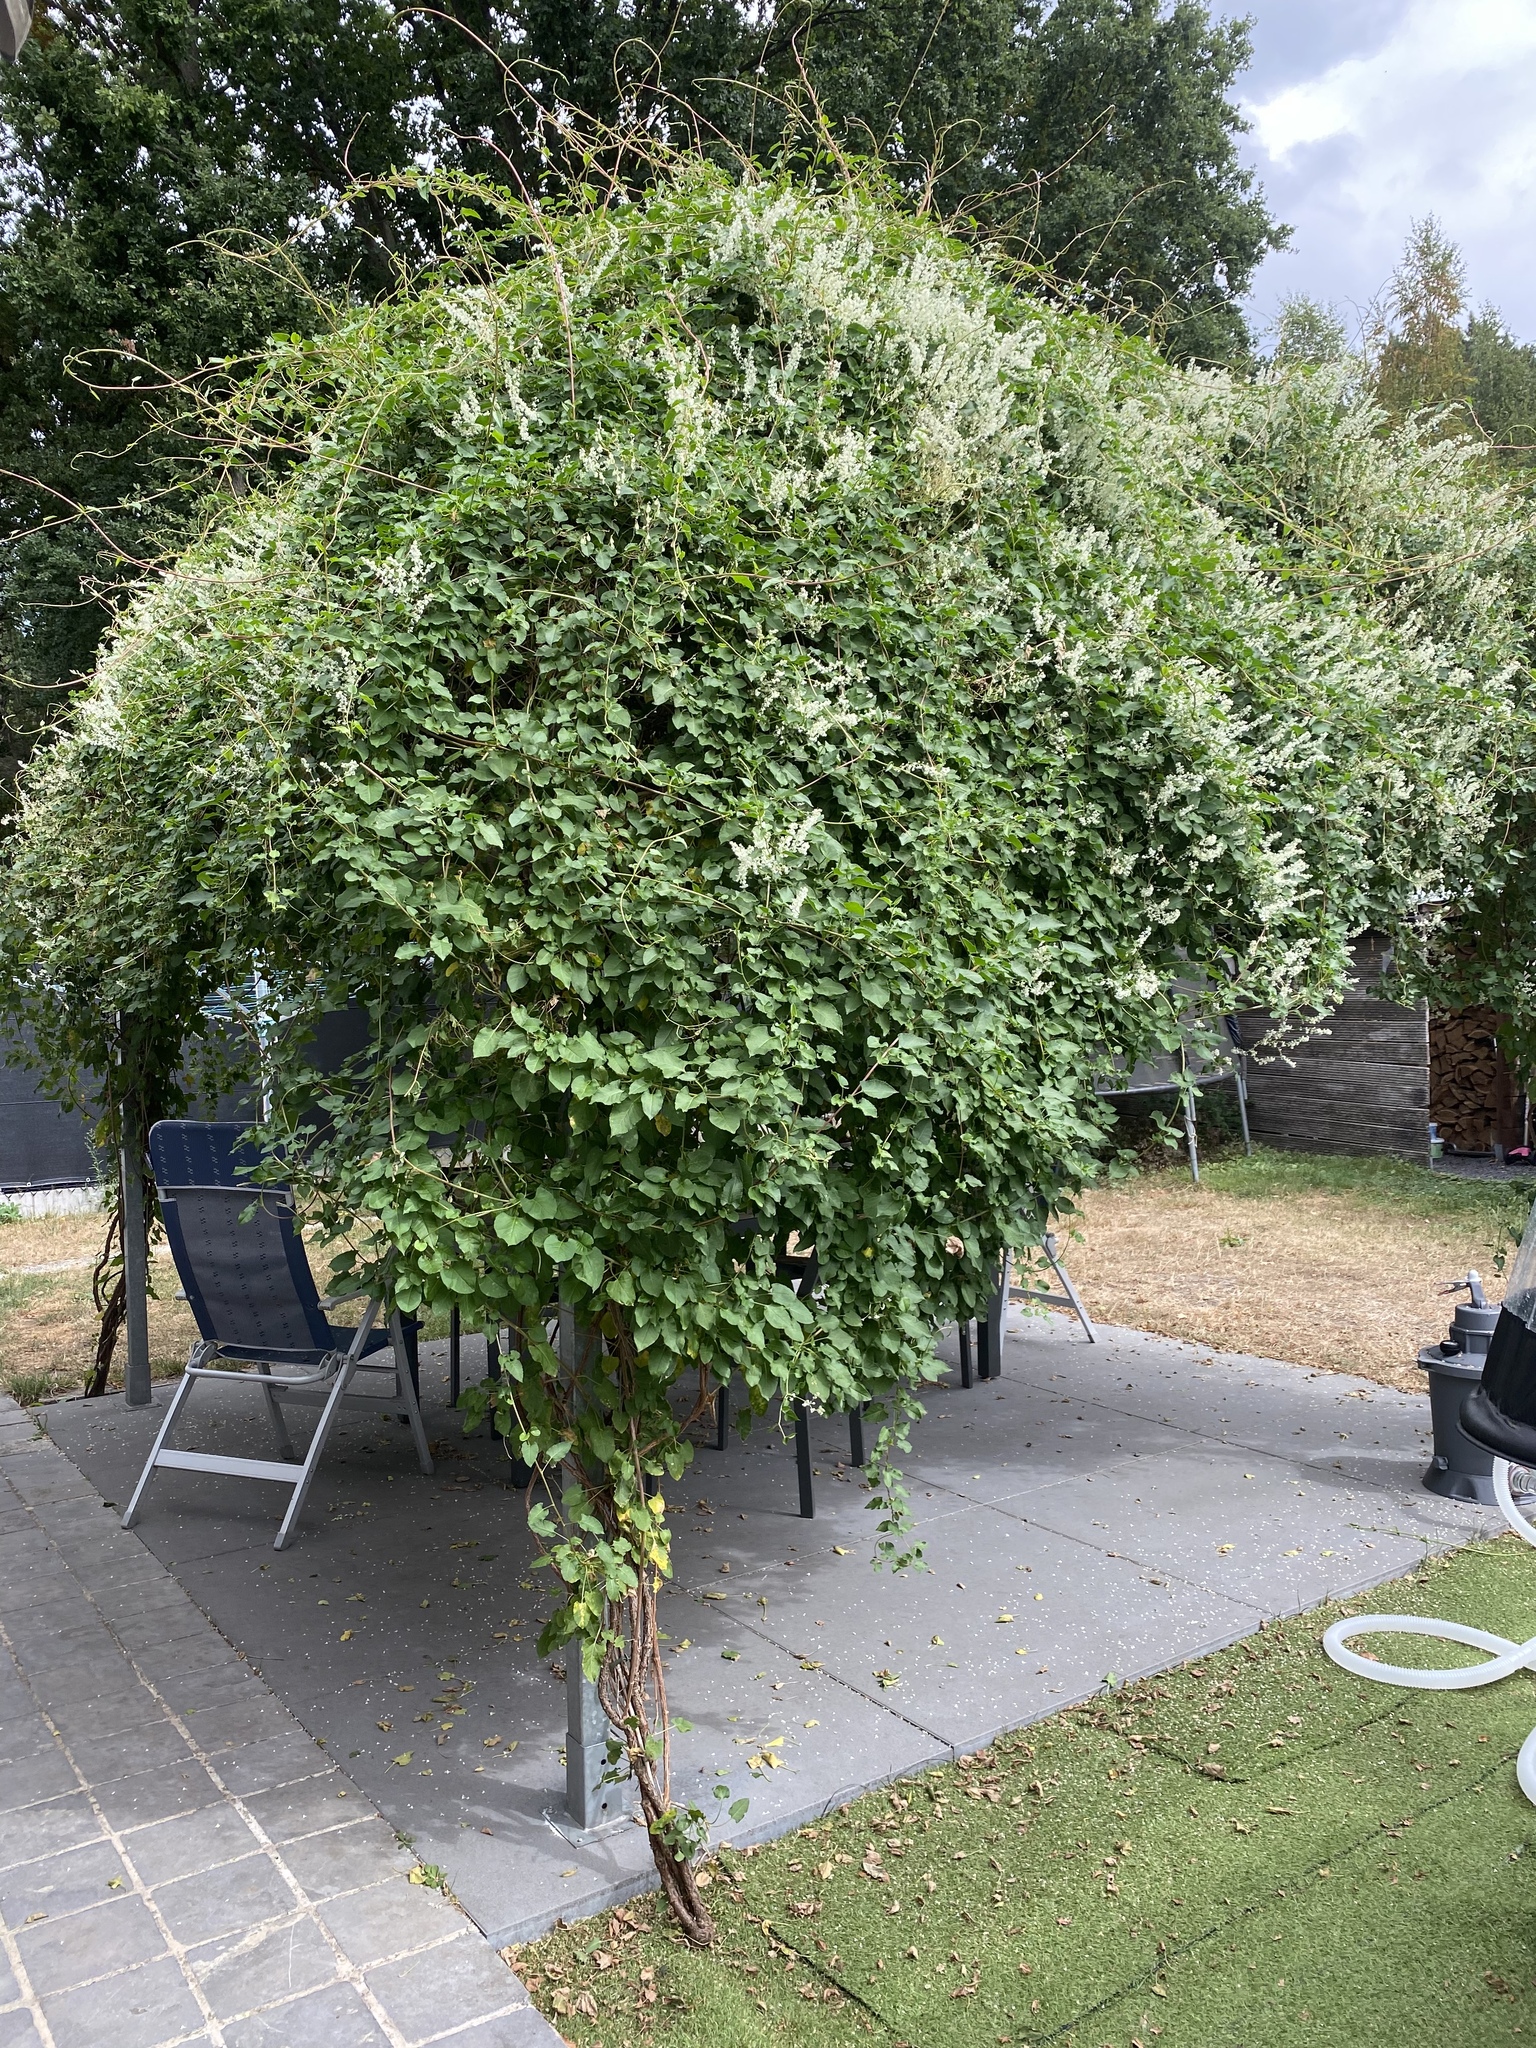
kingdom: Animalia
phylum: Arthropoda
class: Insecta
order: Hymenoptera
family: Vespidae
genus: Vespa
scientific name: Vespa velutina
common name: Asian hornet
